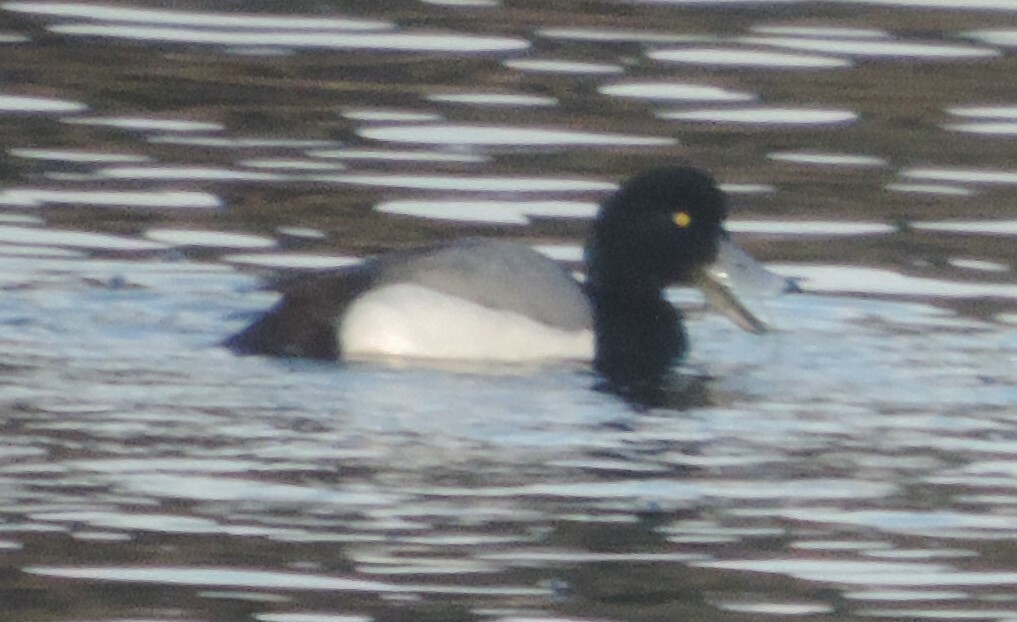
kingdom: Animalia
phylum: Chordata
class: Aves
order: Anseriformes
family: Anatidae
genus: Aythya
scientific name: Aythya marila
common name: Greater scaup
